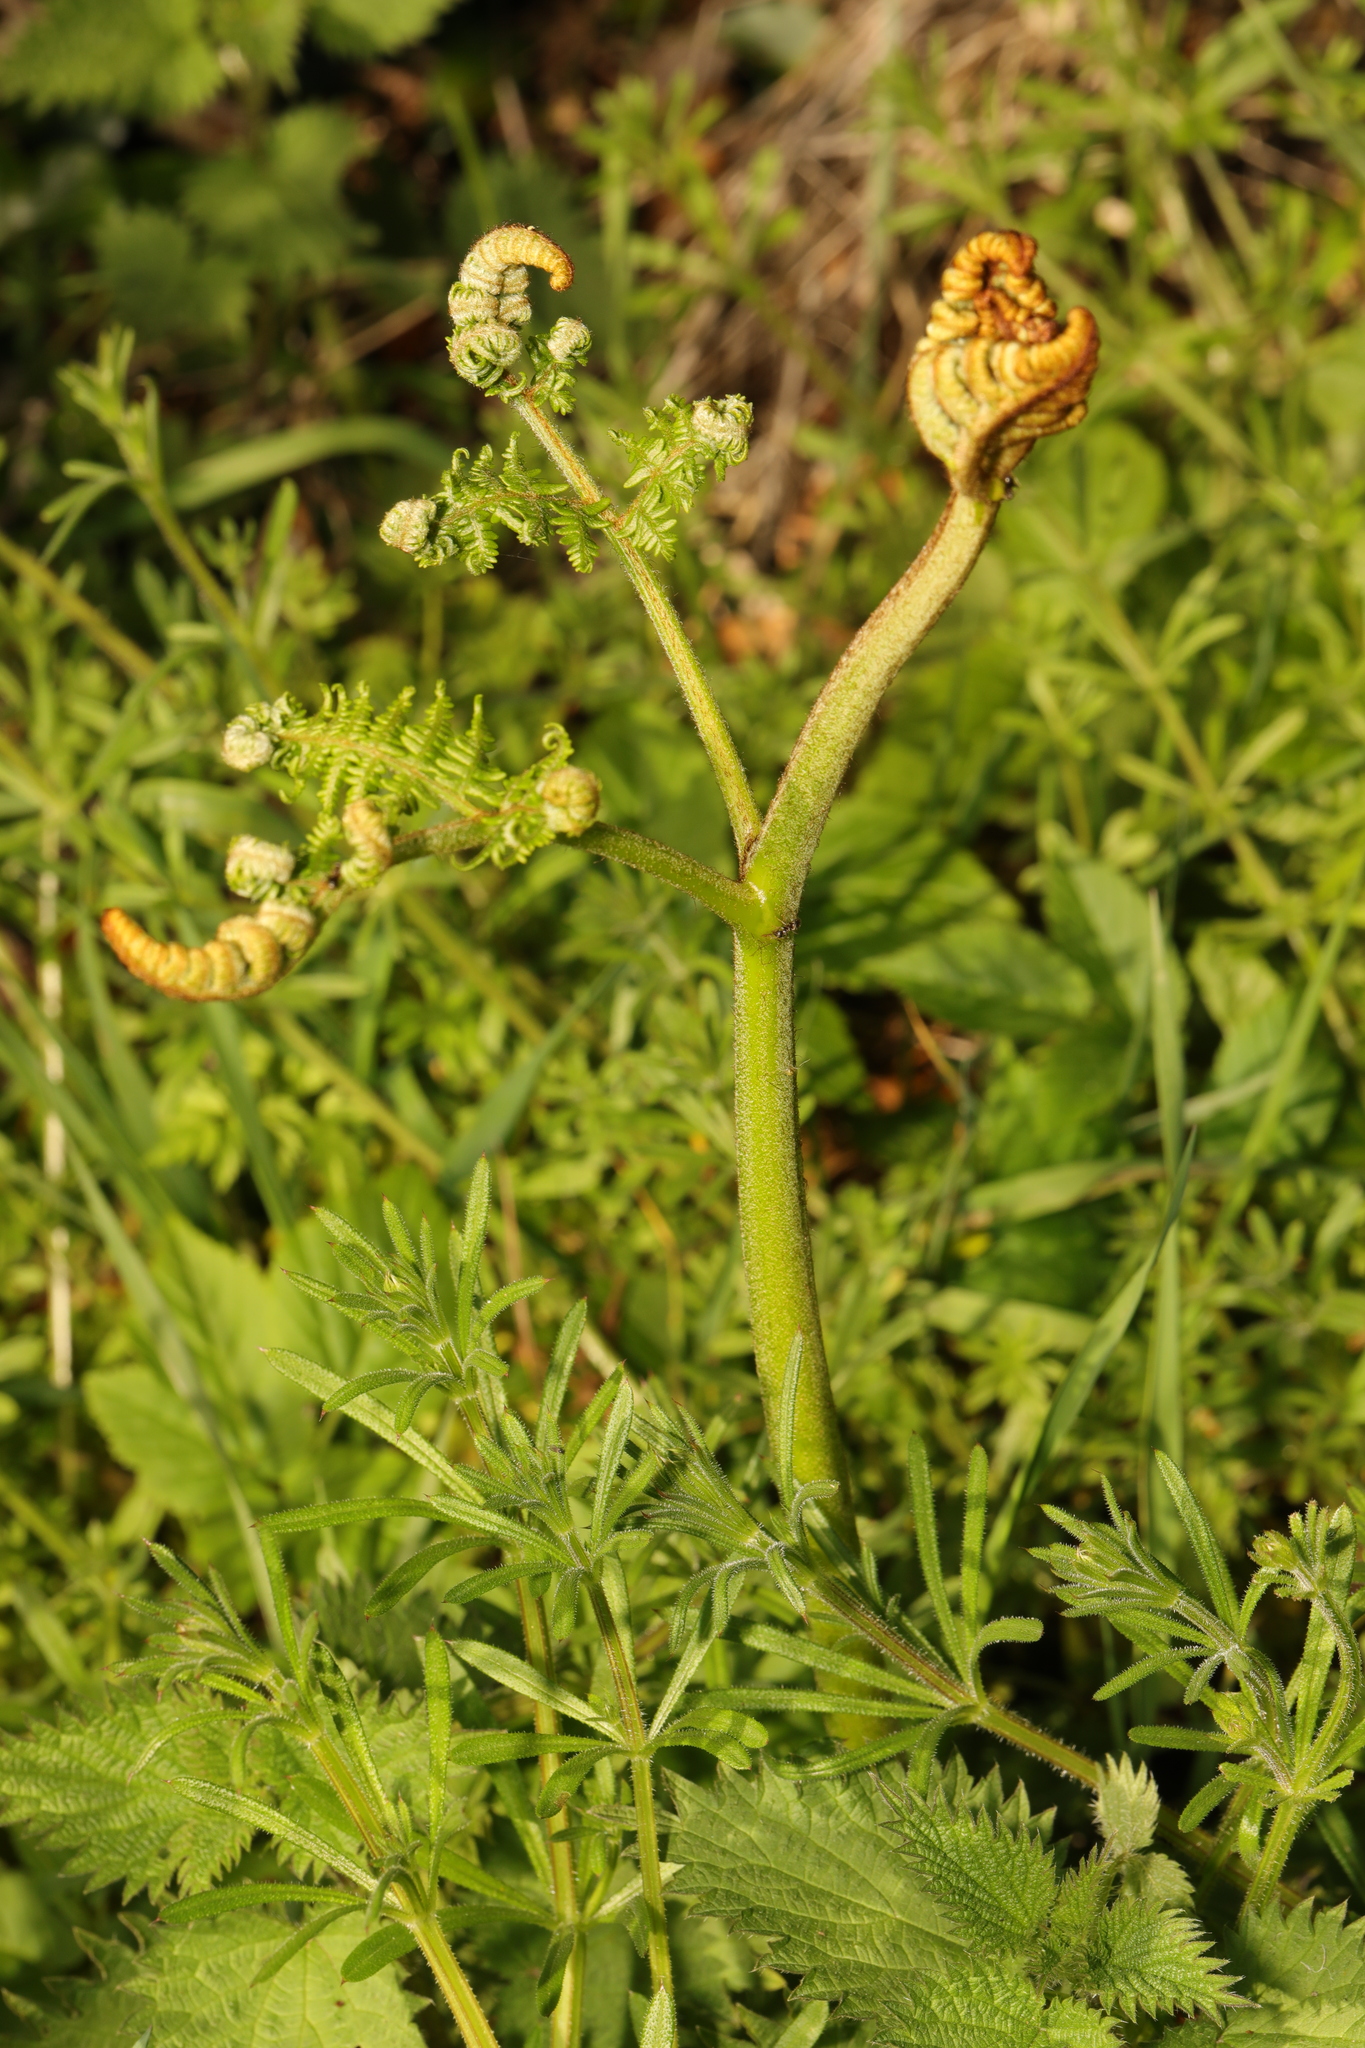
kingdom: Plantae
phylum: Tracheophyta
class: Polypodiopsida
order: Polypodiales
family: Dennstaedtiaceae
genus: Pteridium
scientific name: Pteridium aquilinum
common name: Bracken
